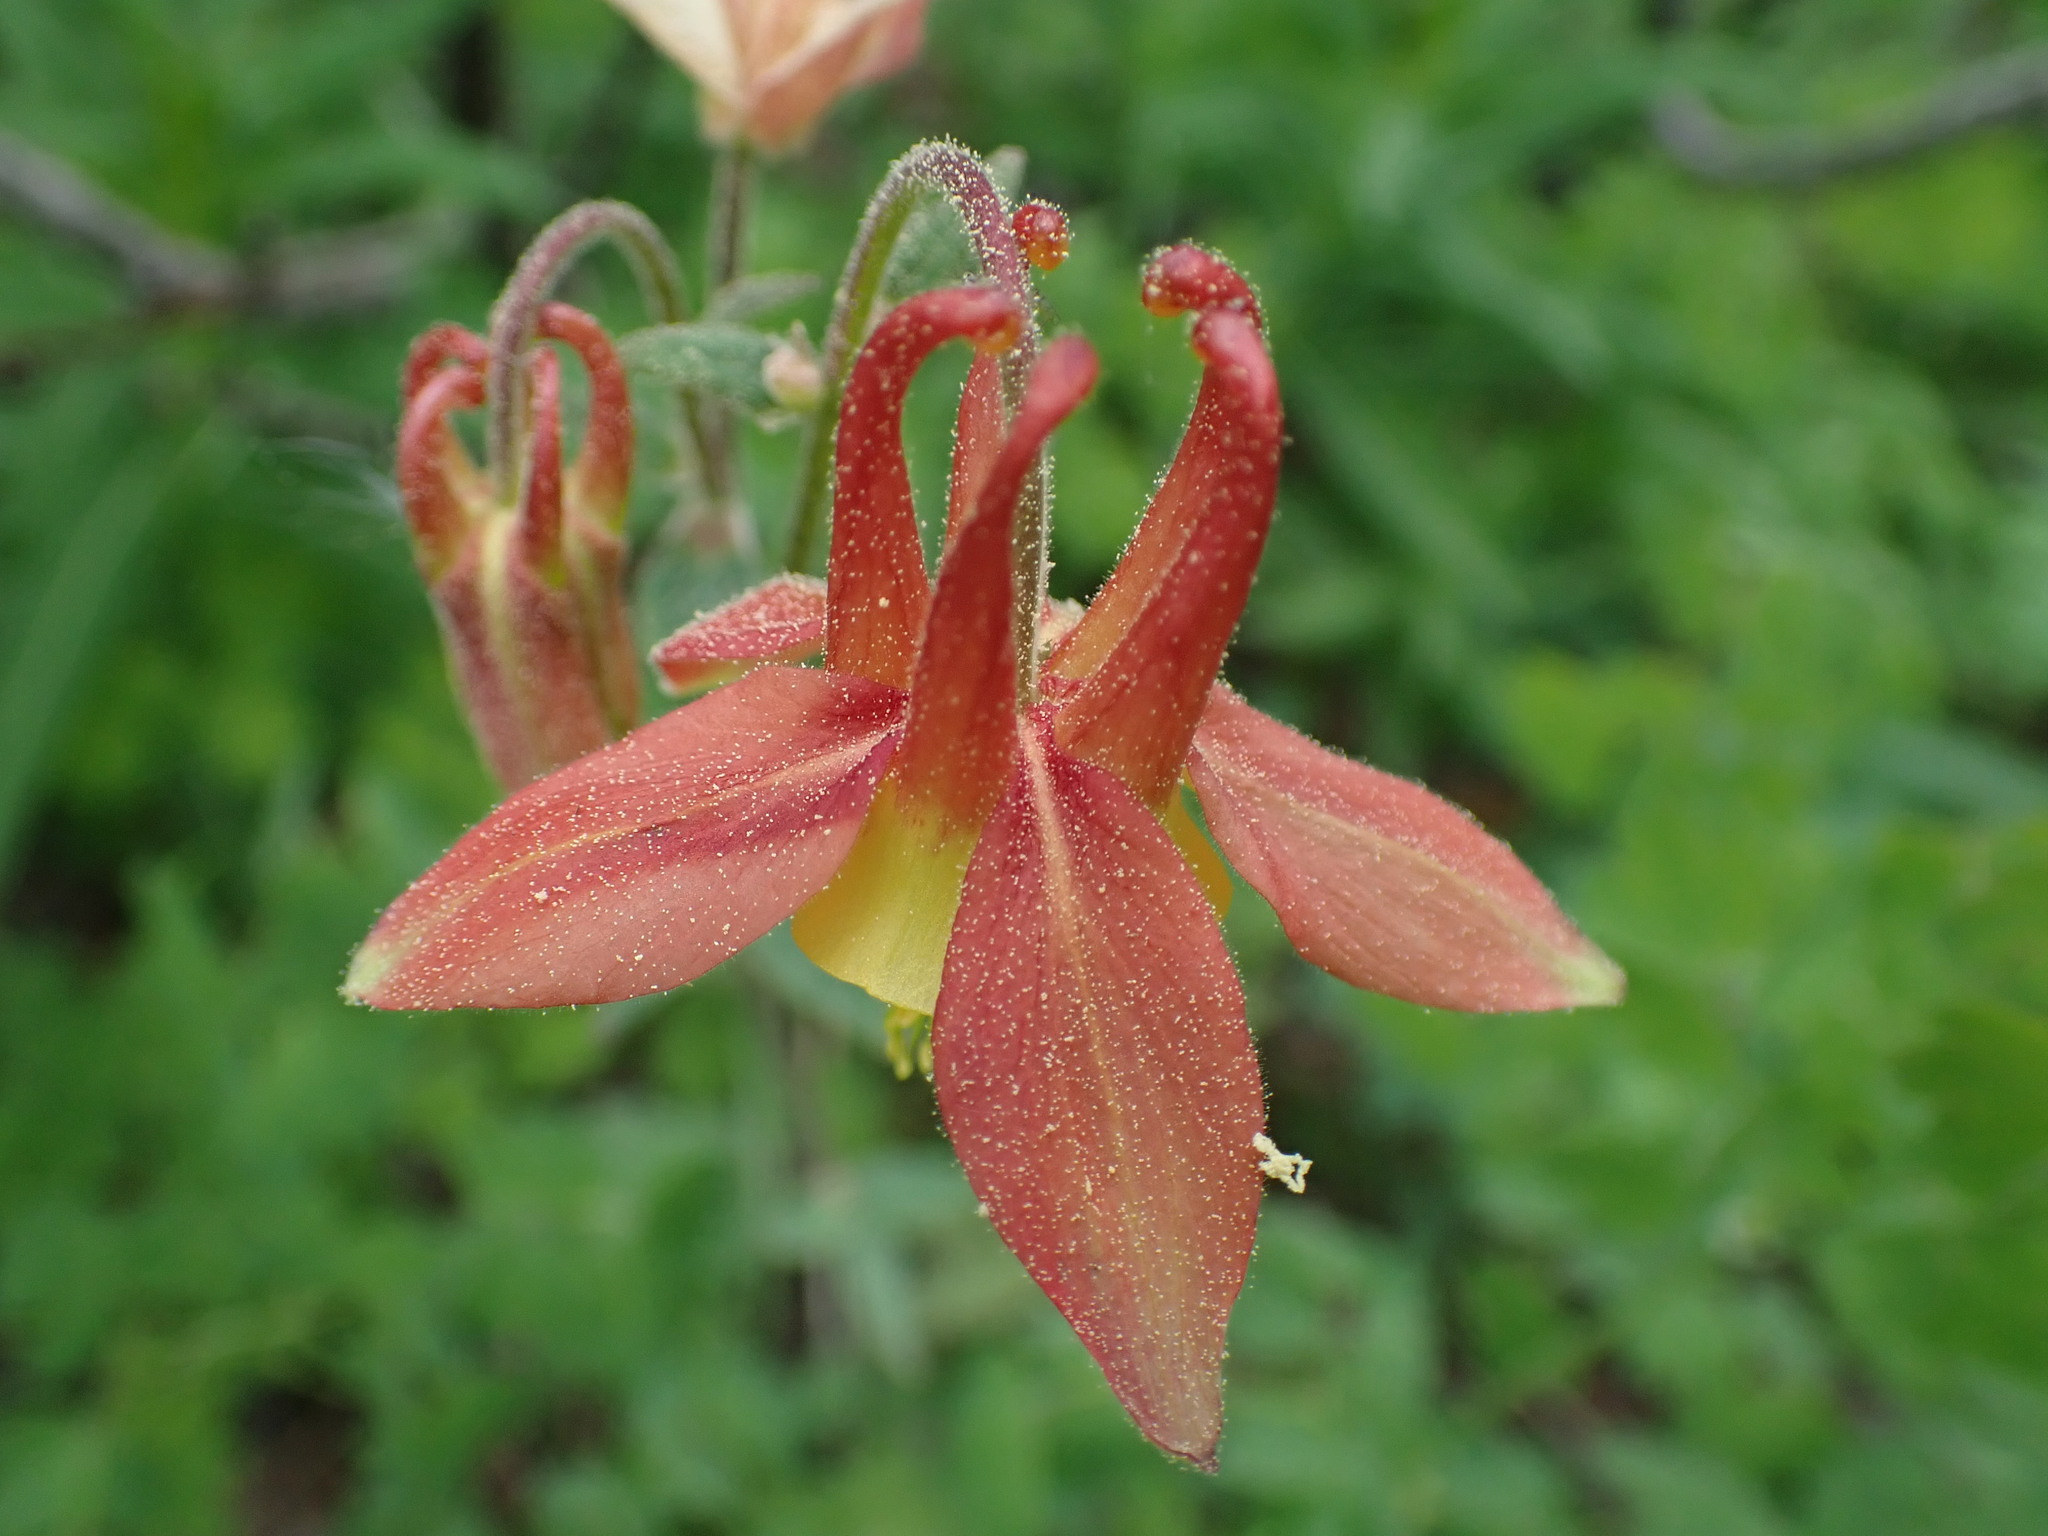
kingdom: Plantae
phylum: Tracheophyta
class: Magnoliopsida
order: Ranunculales
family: Ranunculaceae
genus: Aquilegia
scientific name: Aquilegia formosa
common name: Sitka columbine
